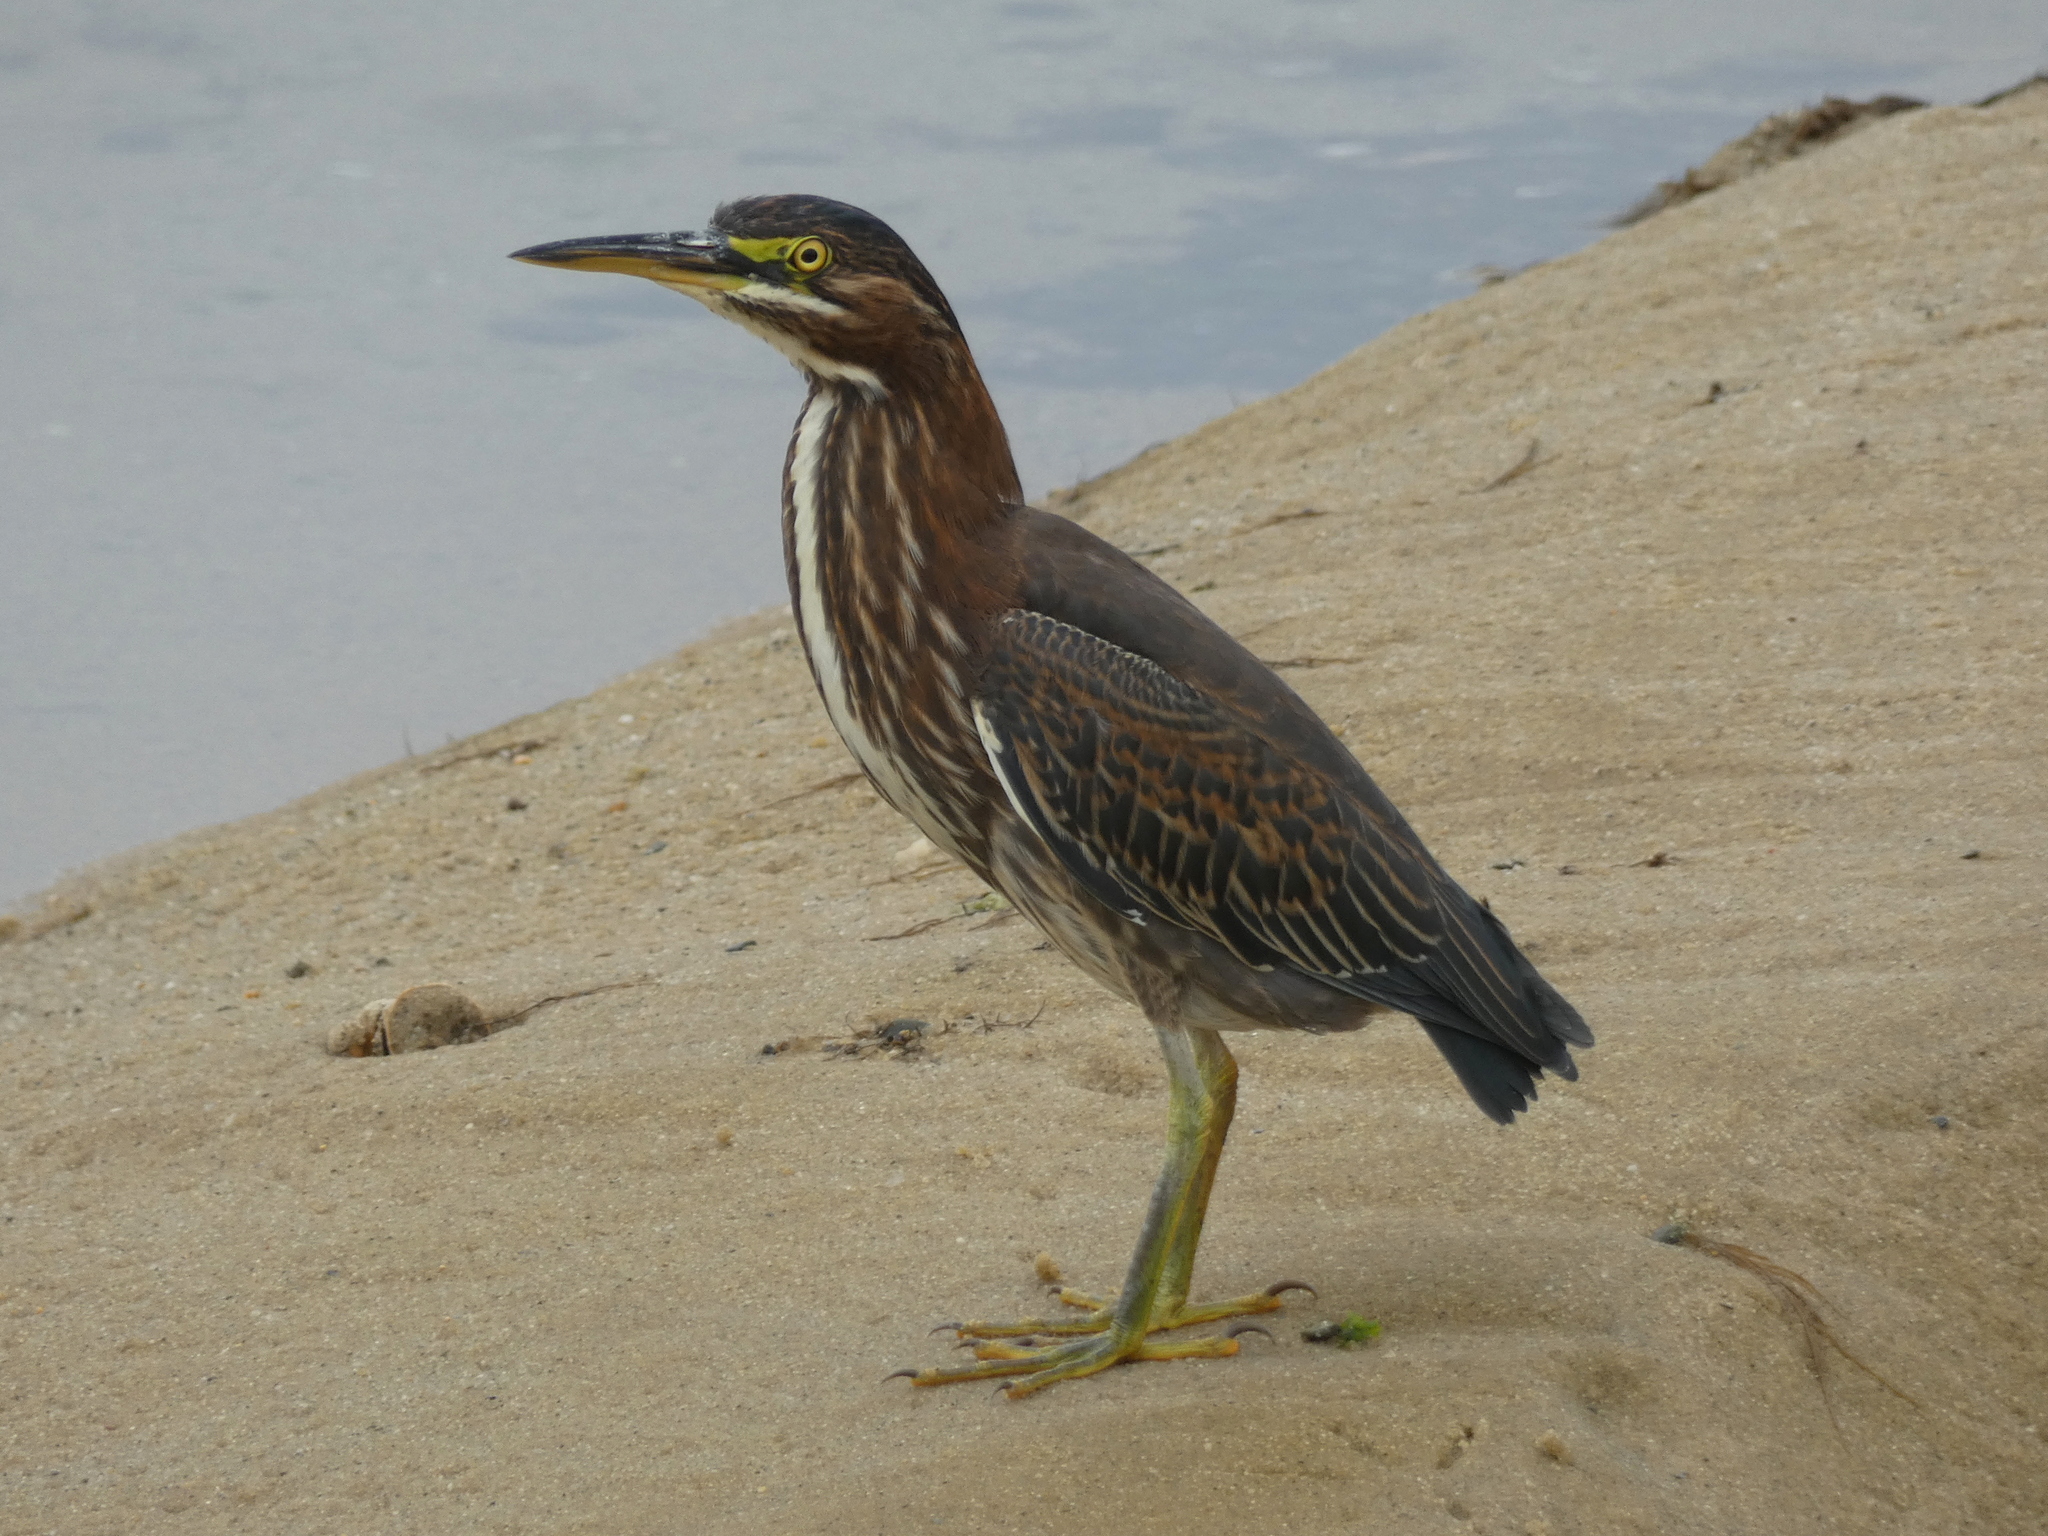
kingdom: Animalia
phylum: Chordata
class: Aves
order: Pelecaniformes
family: Ardeidae
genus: Butorides
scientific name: Butorides virescens
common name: Green heron
